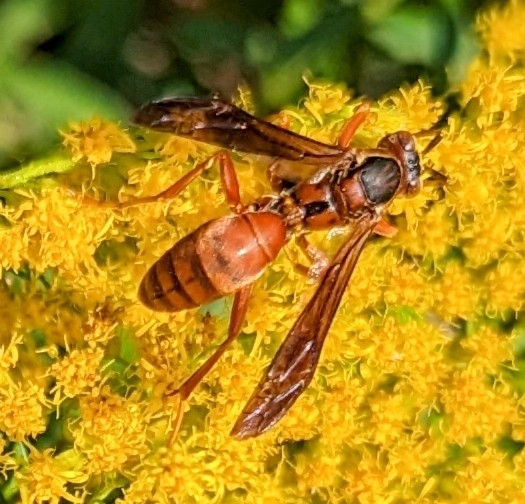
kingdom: Animalia
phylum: Arthropoda
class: Insecta
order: Hymenoptera
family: Eumenidae
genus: Polistes
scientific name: Polistes carolina
